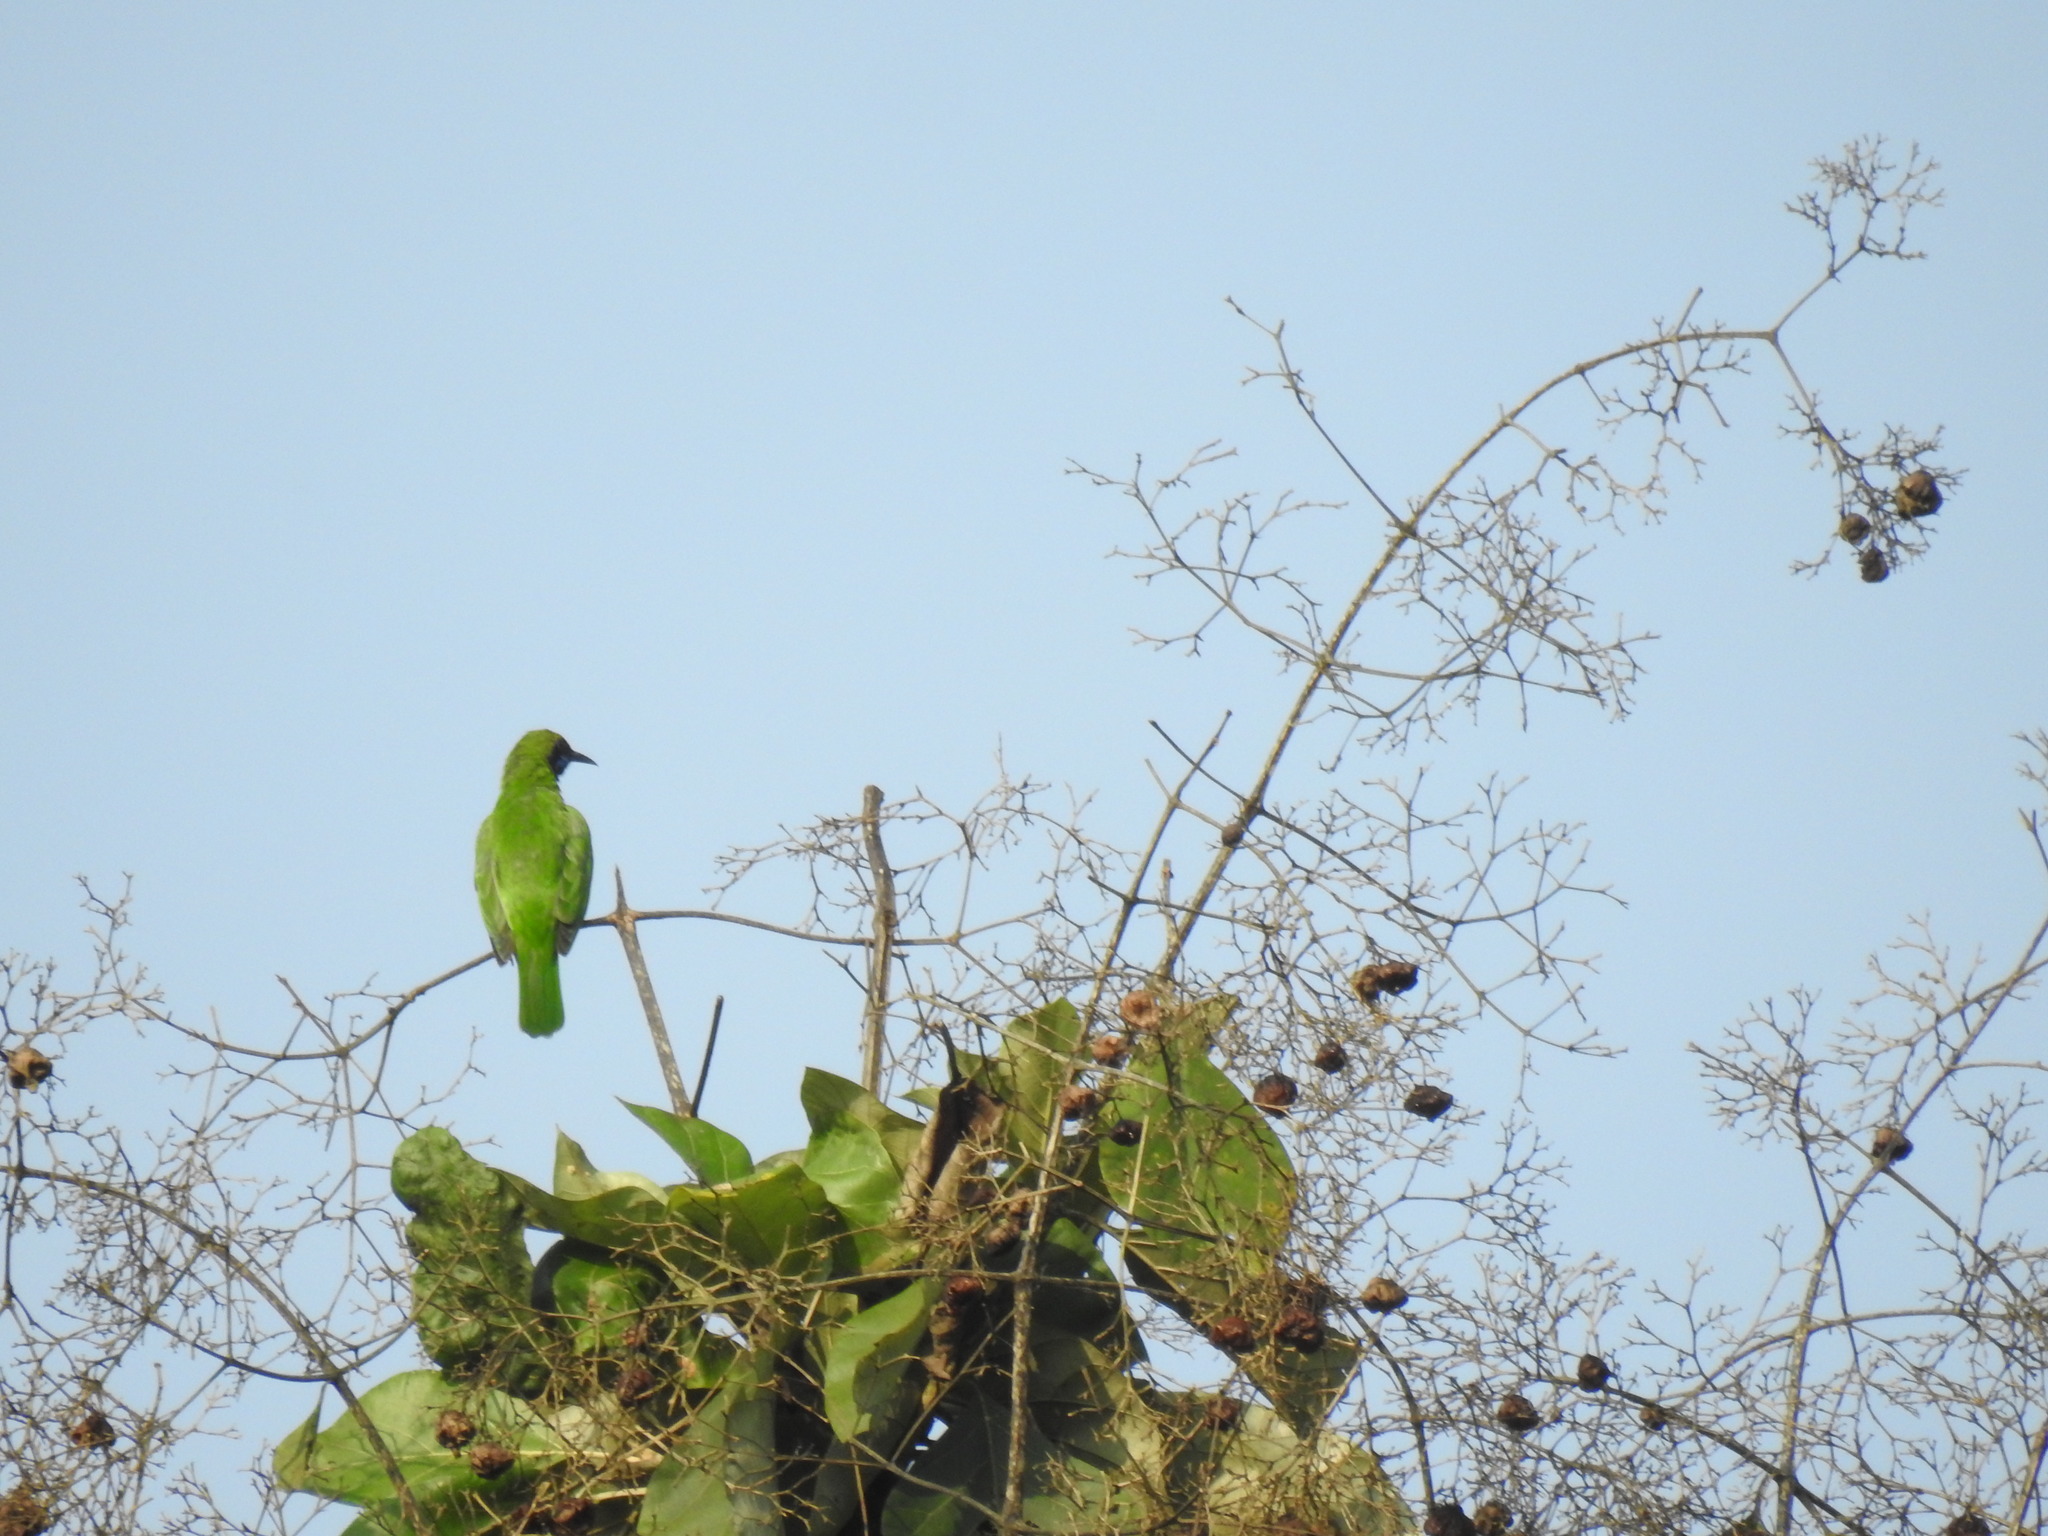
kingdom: Animalia
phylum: Chordata
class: Aves
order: Passeriformes
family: Chloropseidae
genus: Chloropsis
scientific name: Chloropsis jerdoni
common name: Jerdon's leafbird
